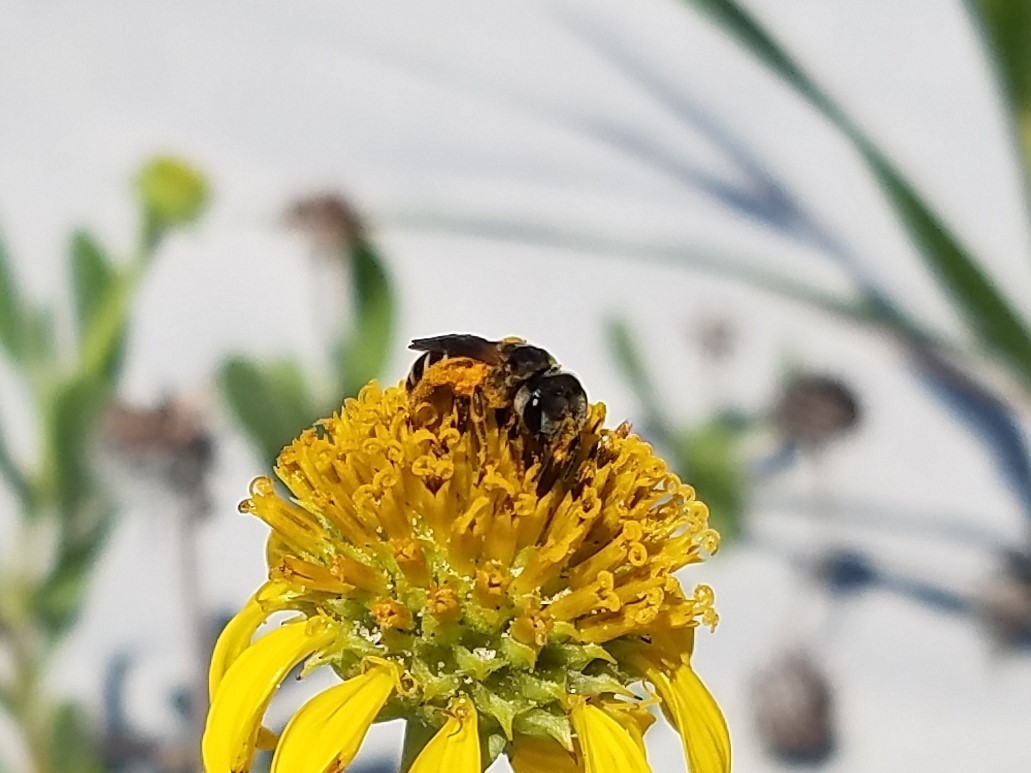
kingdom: Animalia
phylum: Arthropoda
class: Insecta
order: Hymenoptera
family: Halictidae
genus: Halictus
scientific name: Halictus poeyi
